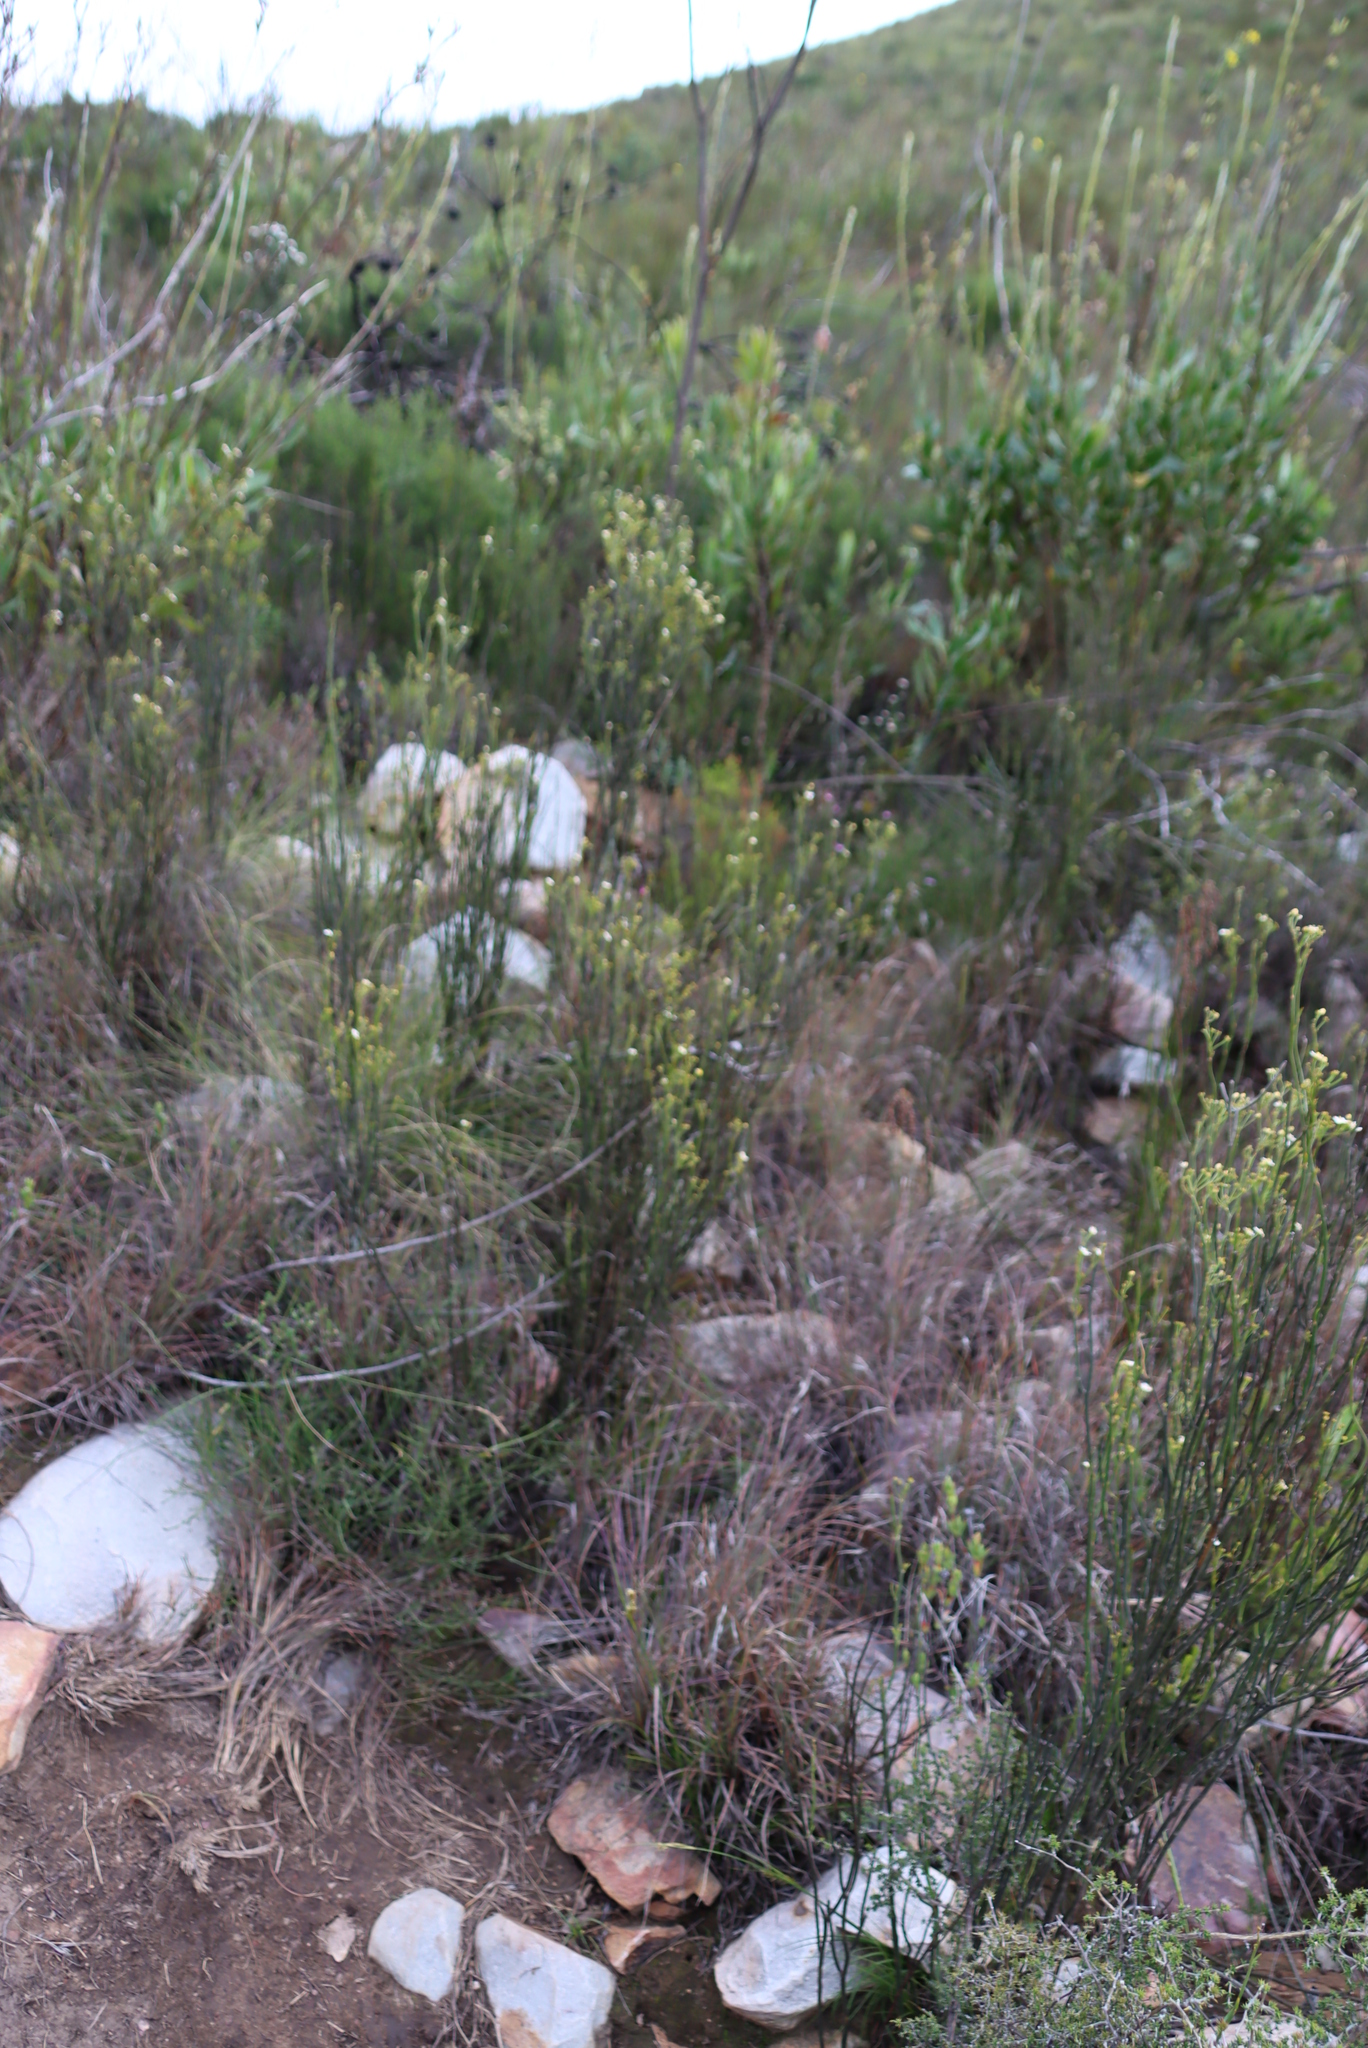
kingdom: Plantae
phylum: Tracheophyta
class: Magnoliopsida
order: Solanales
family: Montiniaceae
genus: Montinia
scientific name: Montinia caryophyllacea
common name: Wild clove-bush
